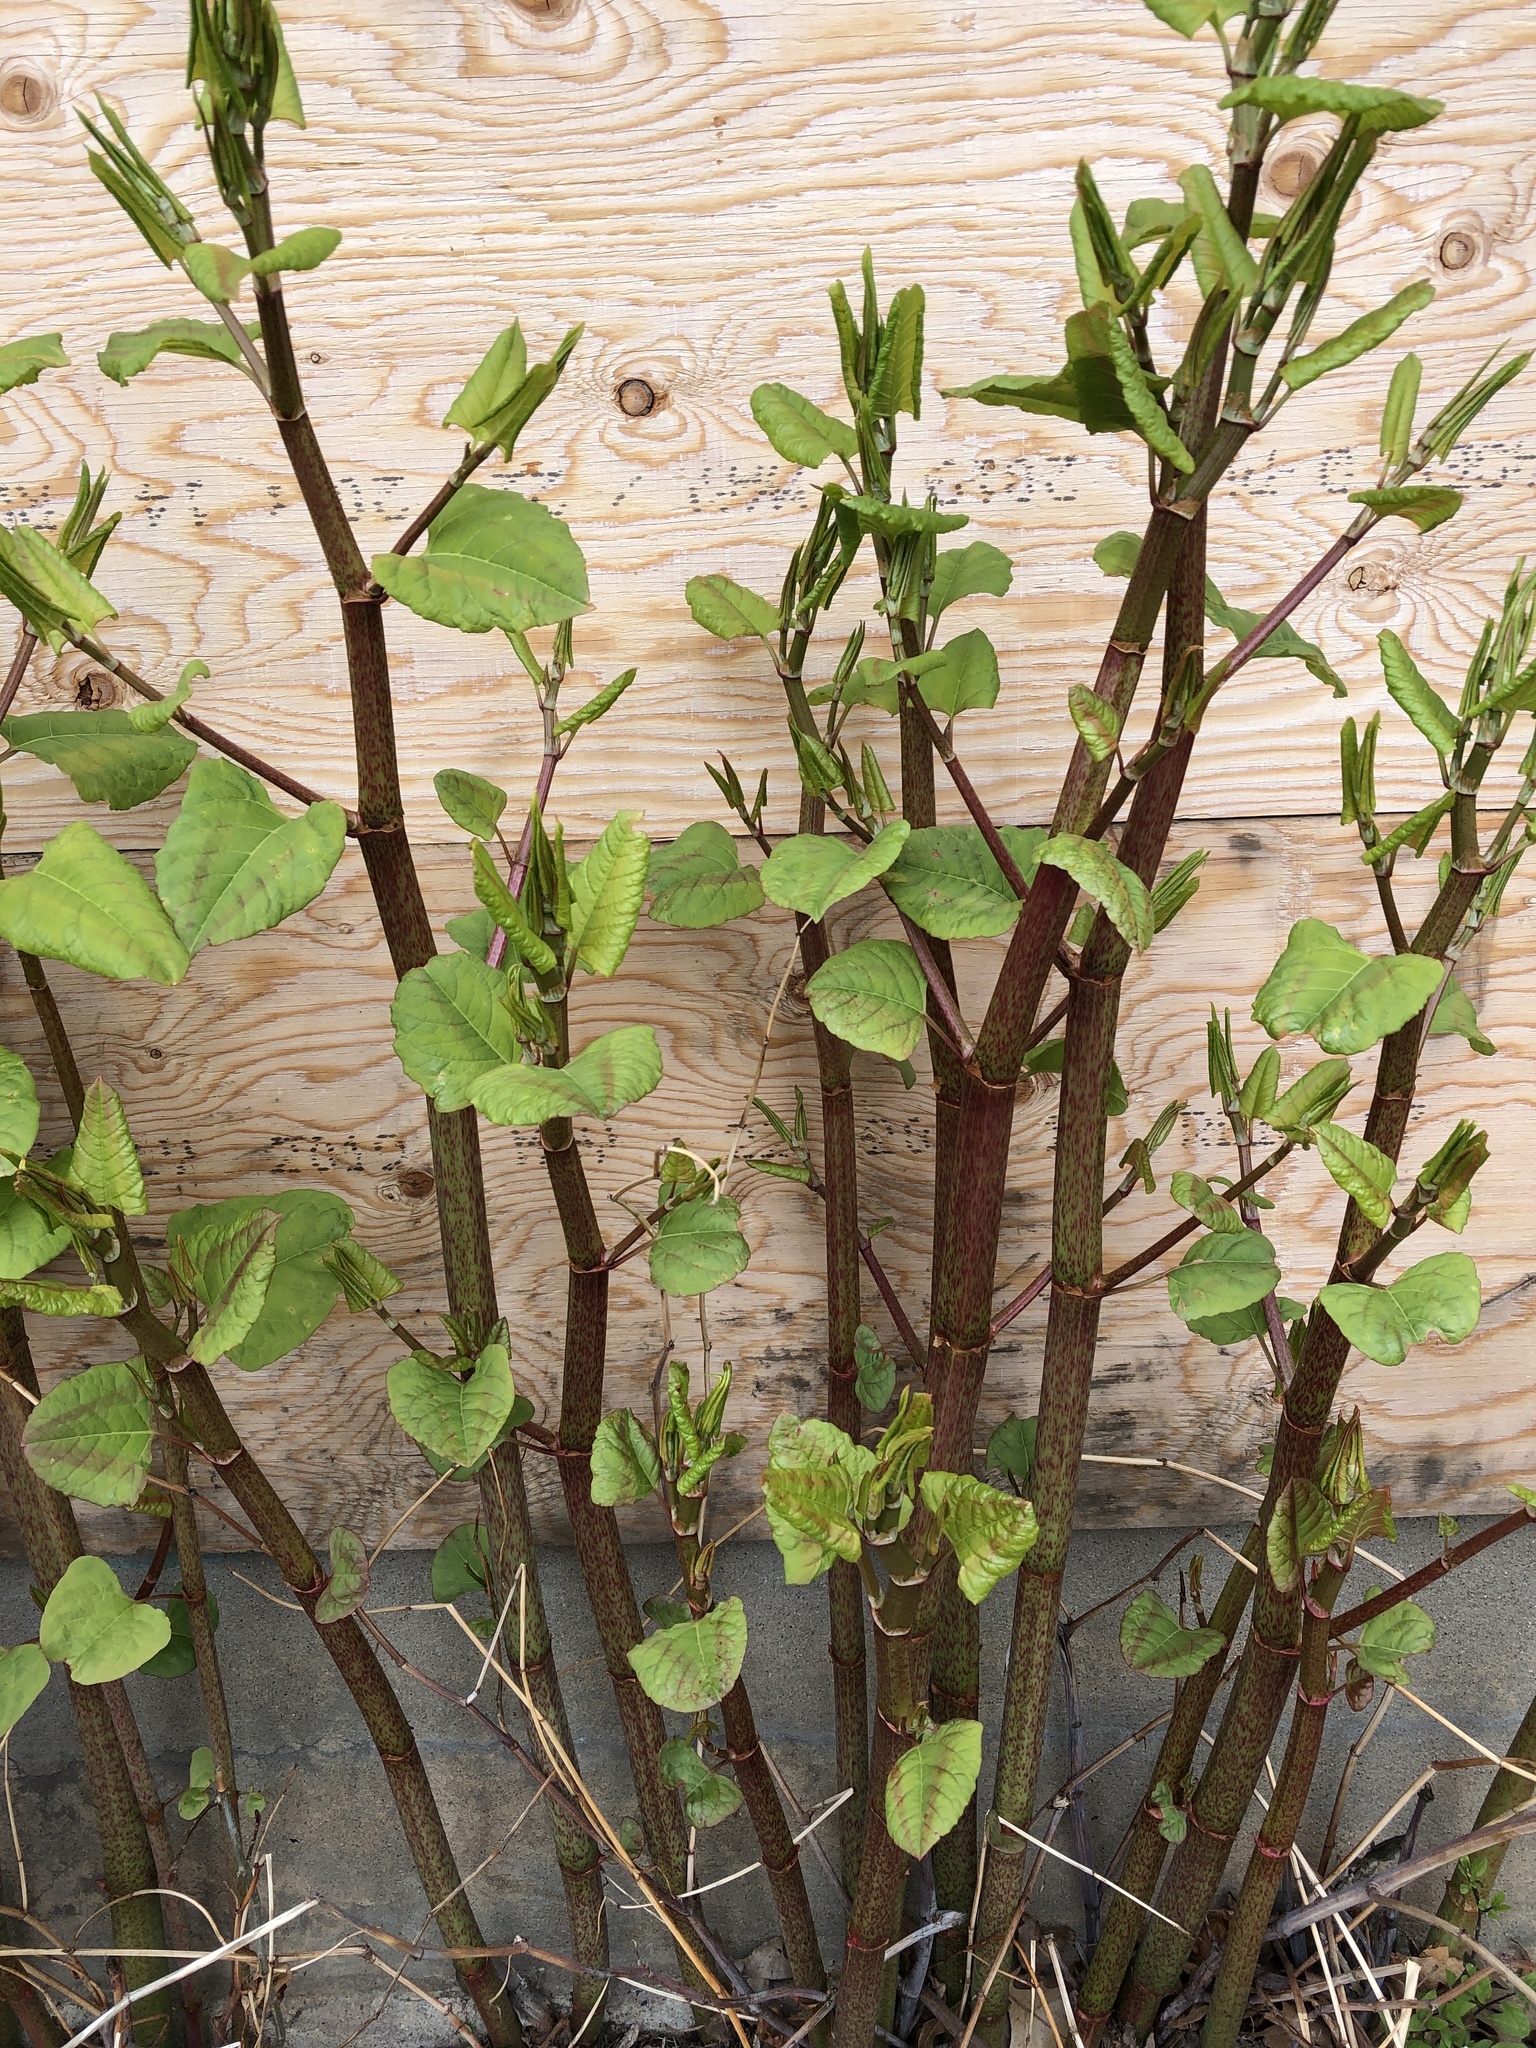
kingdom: Plantae
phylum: Tracheophyta
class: Magnoliopsida
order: Caryophyllales
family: Polygonaceae
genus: Reynoutria
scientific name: Reynoutria japonica
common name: Japanese knotweed
